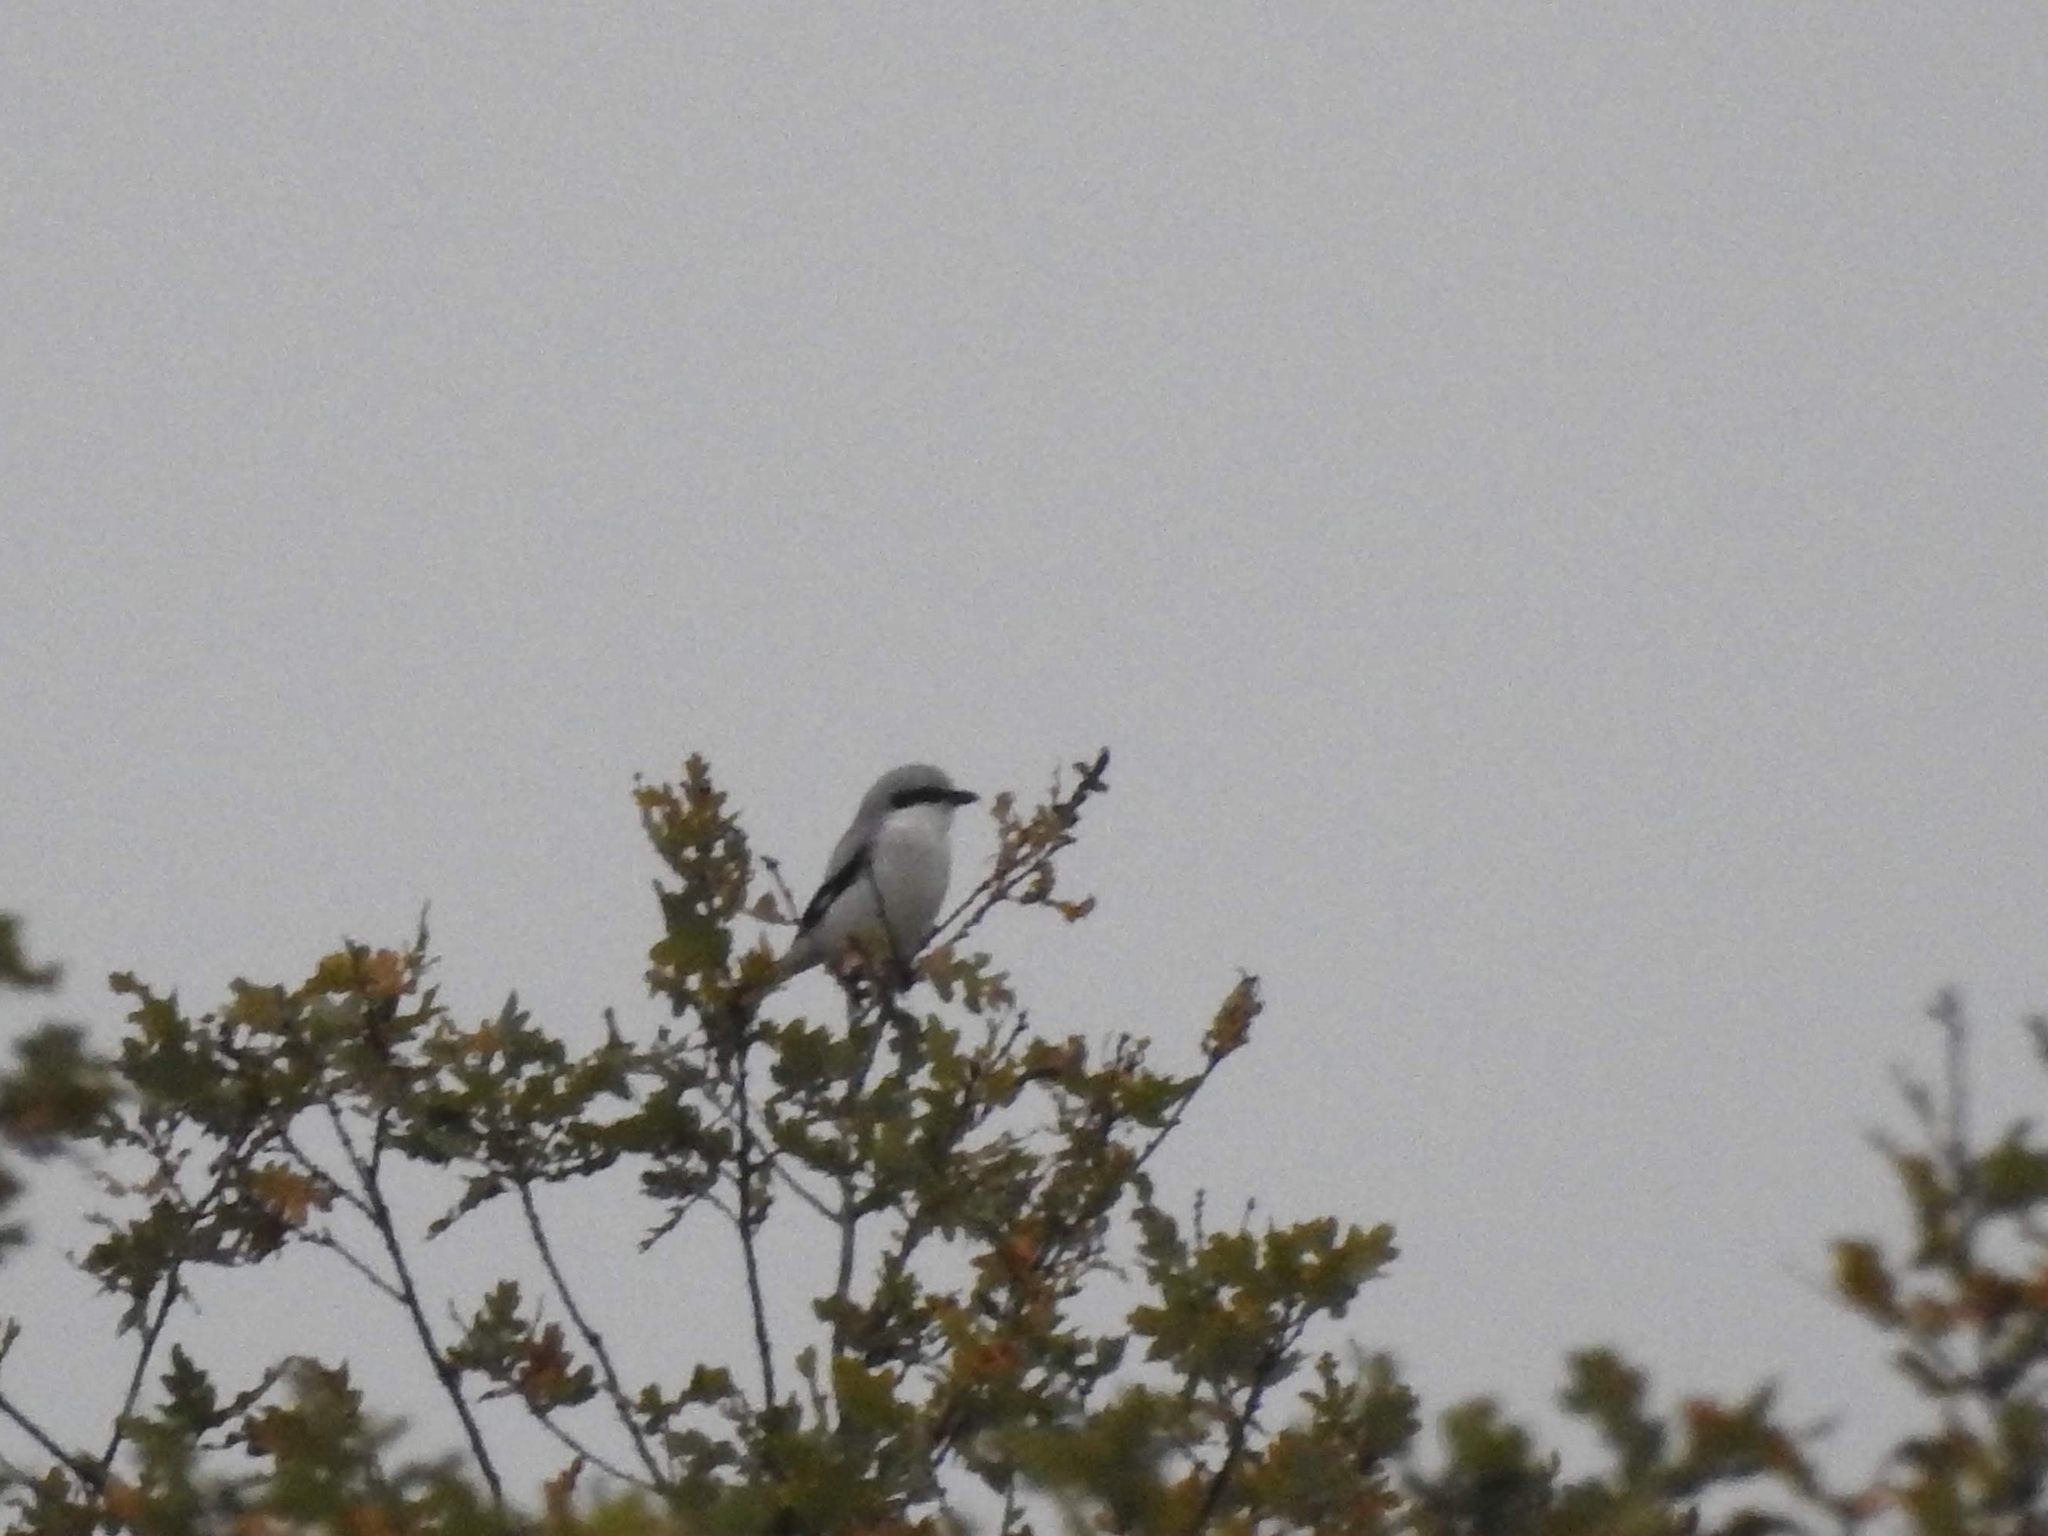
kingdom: Animalia
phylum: Chordata
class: Aves
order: Passeriformes
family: Laniidae
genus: Lanius
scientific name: Lanius excubitor
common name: Great grey shrike
